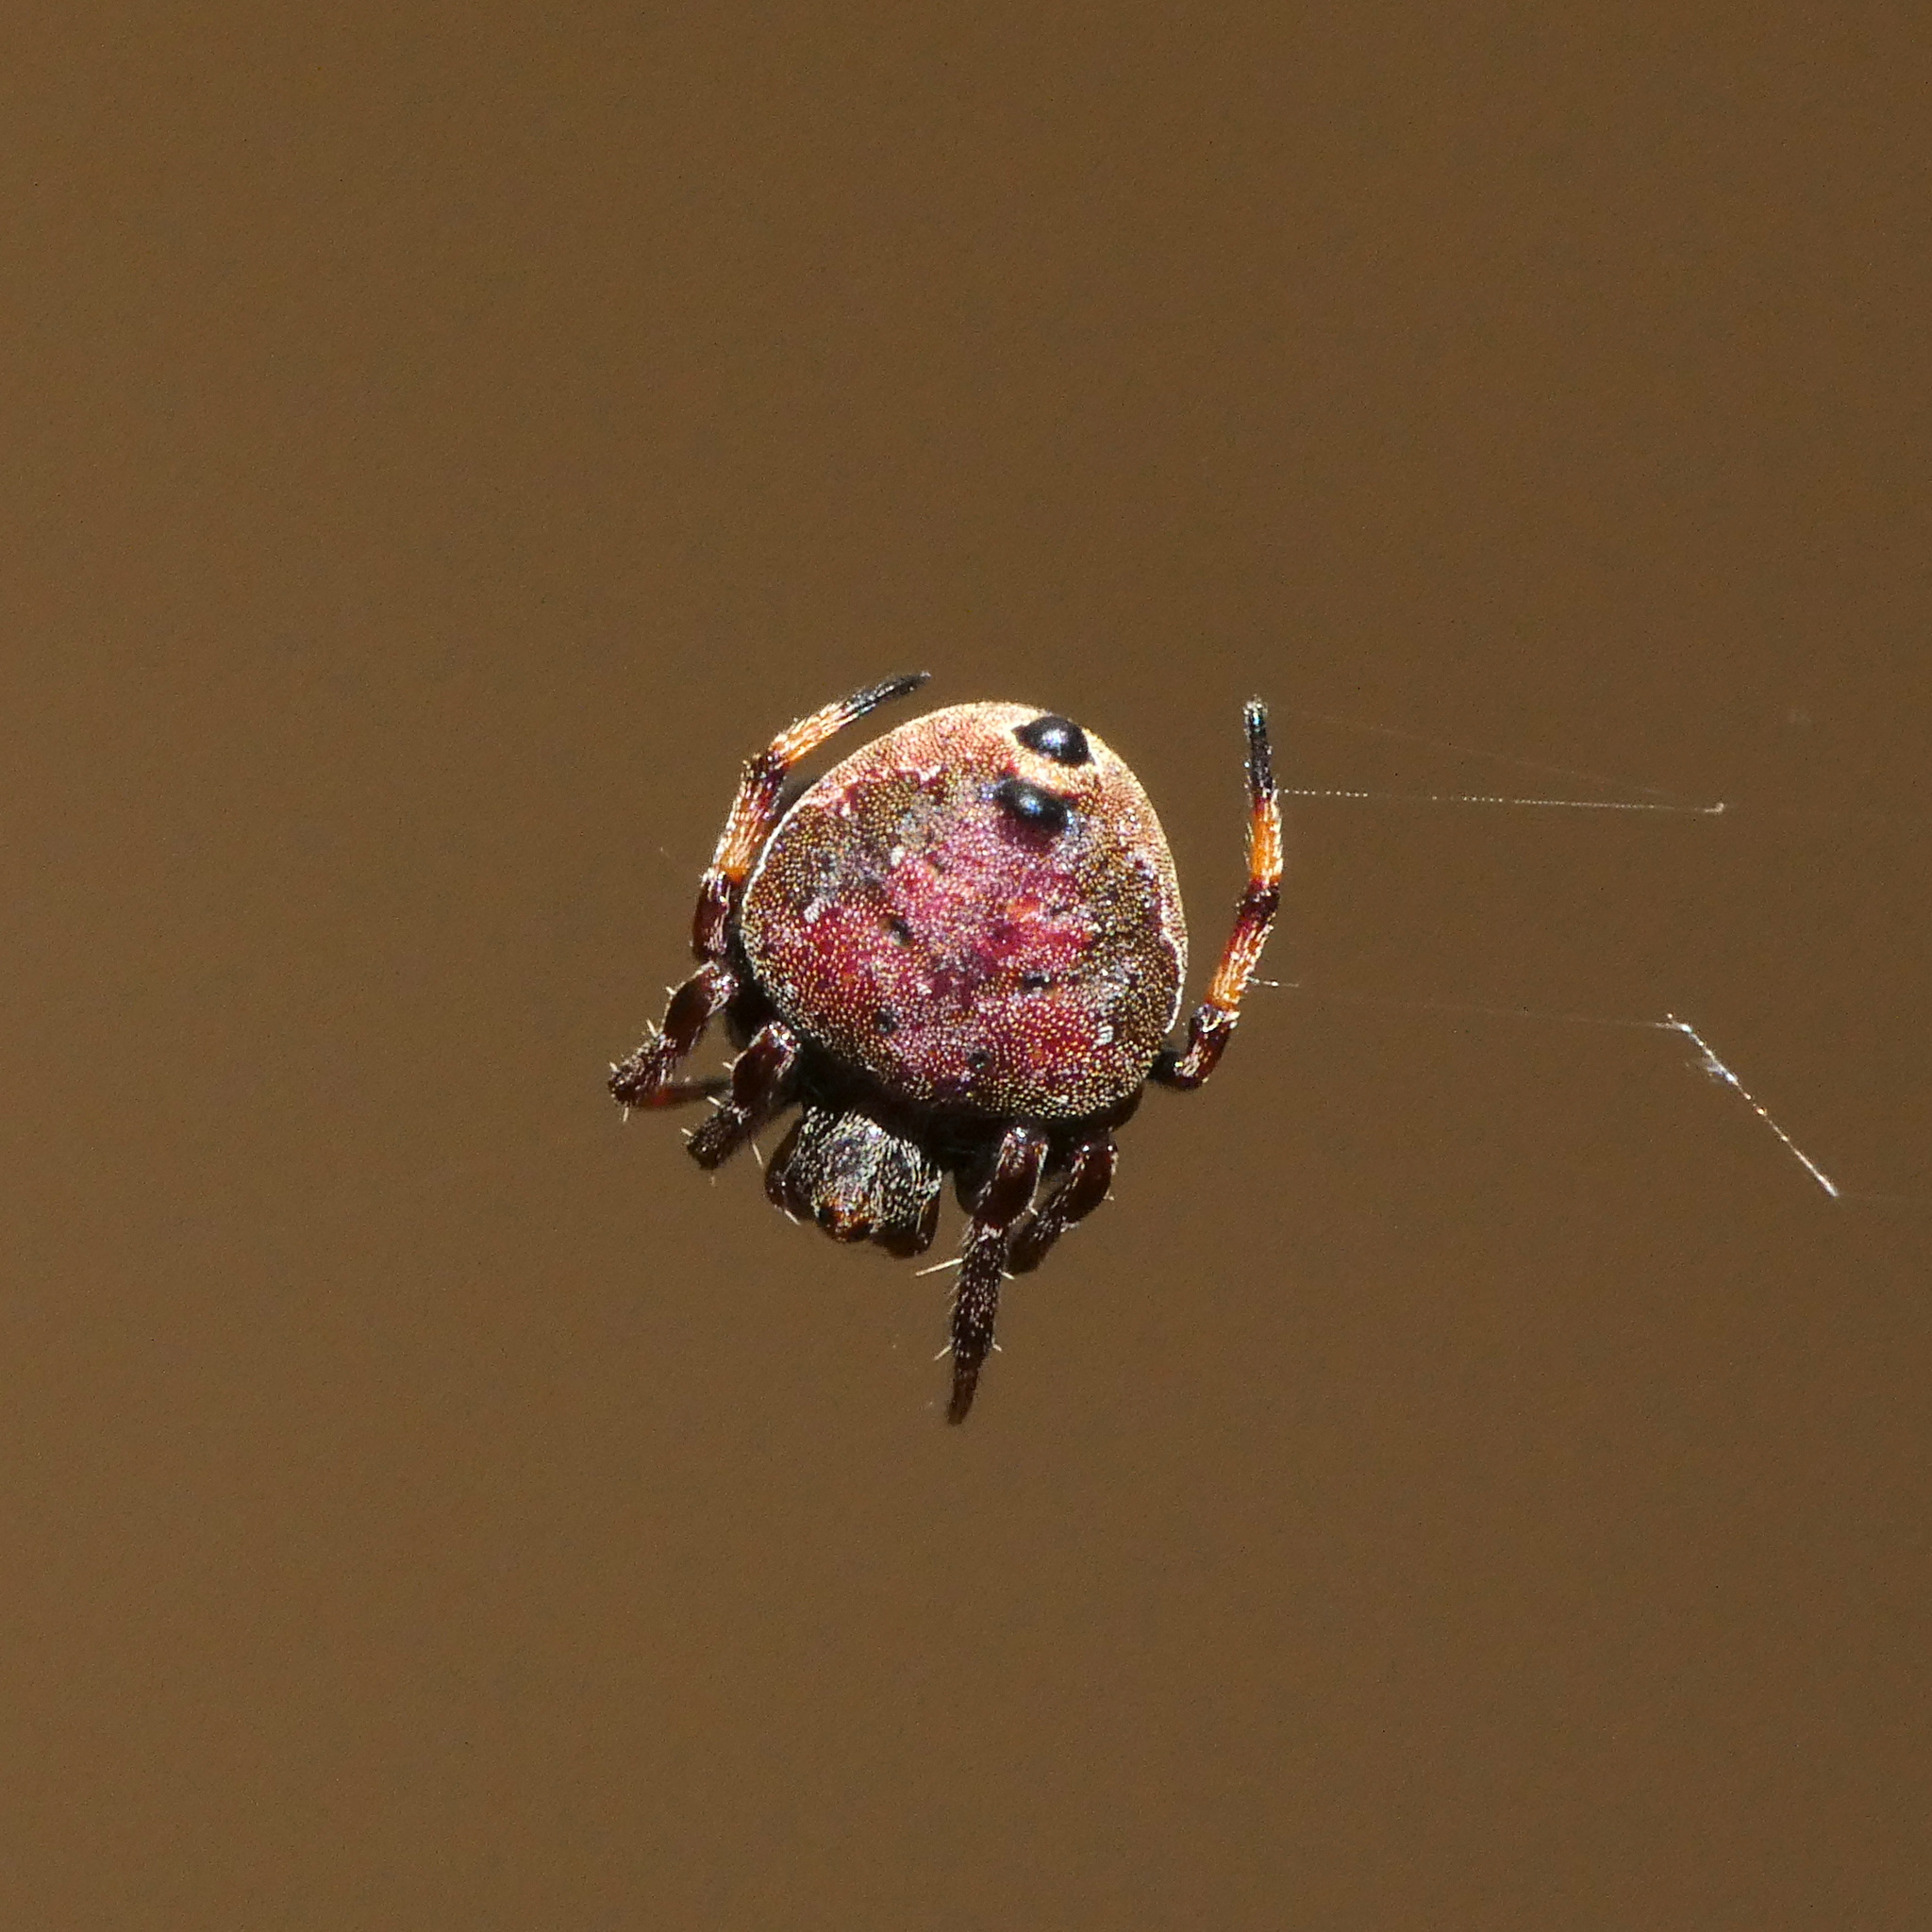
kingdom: Animalia
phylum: Arthropoda
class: Arachnida
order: Araneae
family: Araneidae
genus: Eriovixia
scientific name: Eriovixia excelsa
